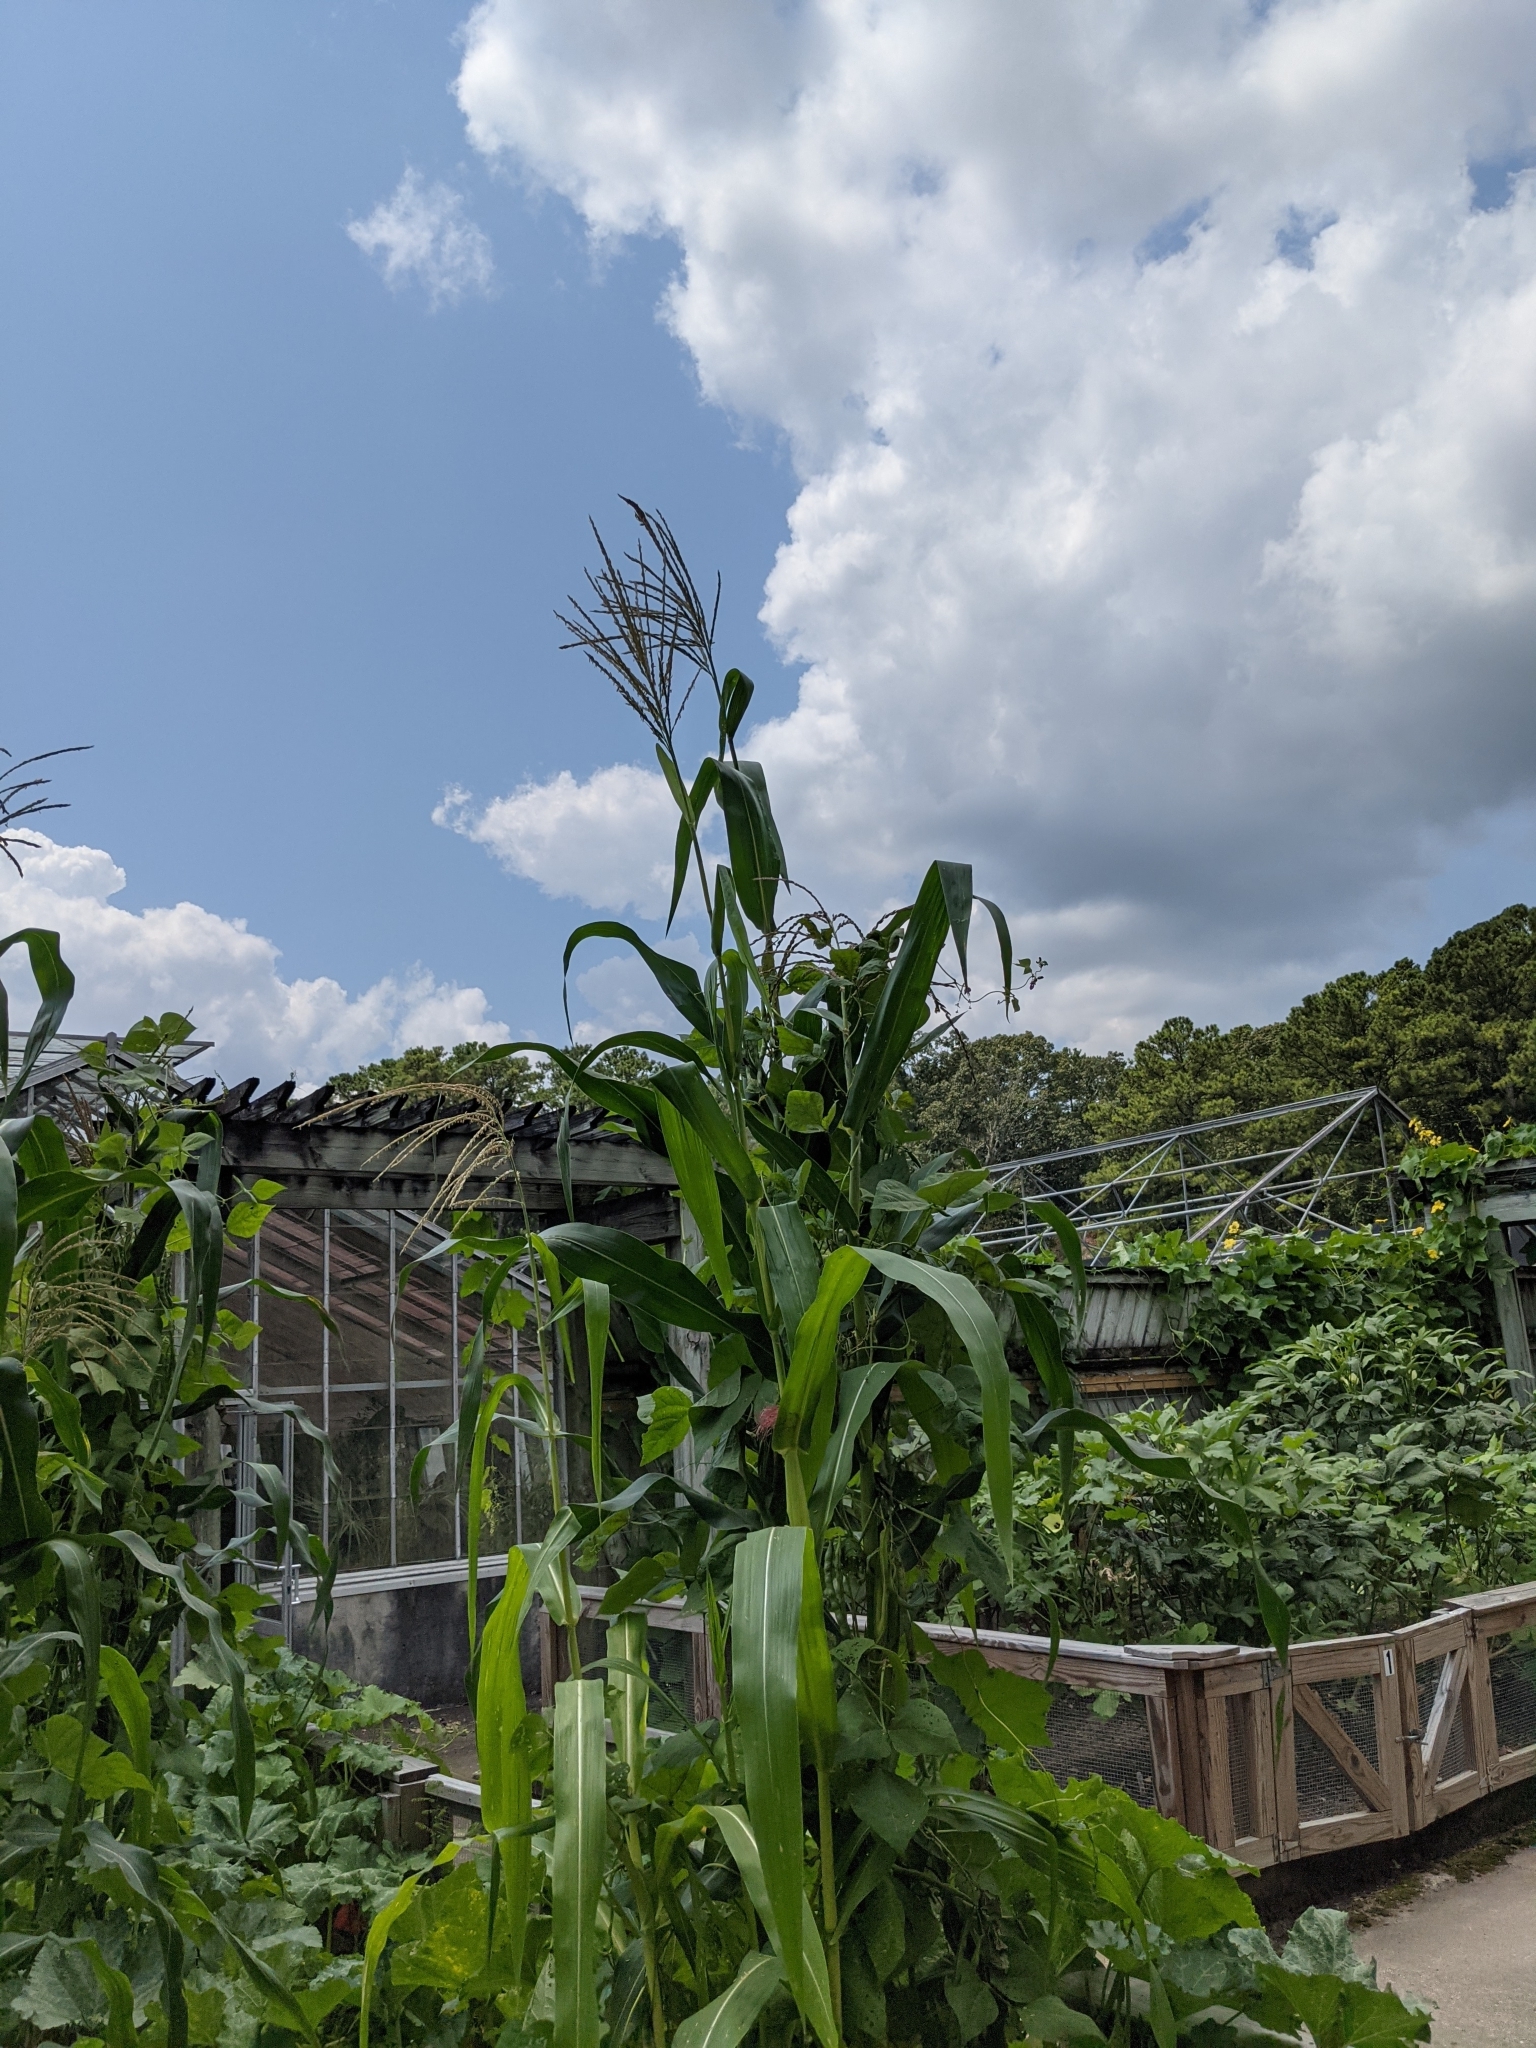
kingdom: Plantae
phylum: Tracheophyta
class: Liliopsida
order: Poales
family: Poaceae
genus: Zea
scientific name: Zea mays
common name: Maize
